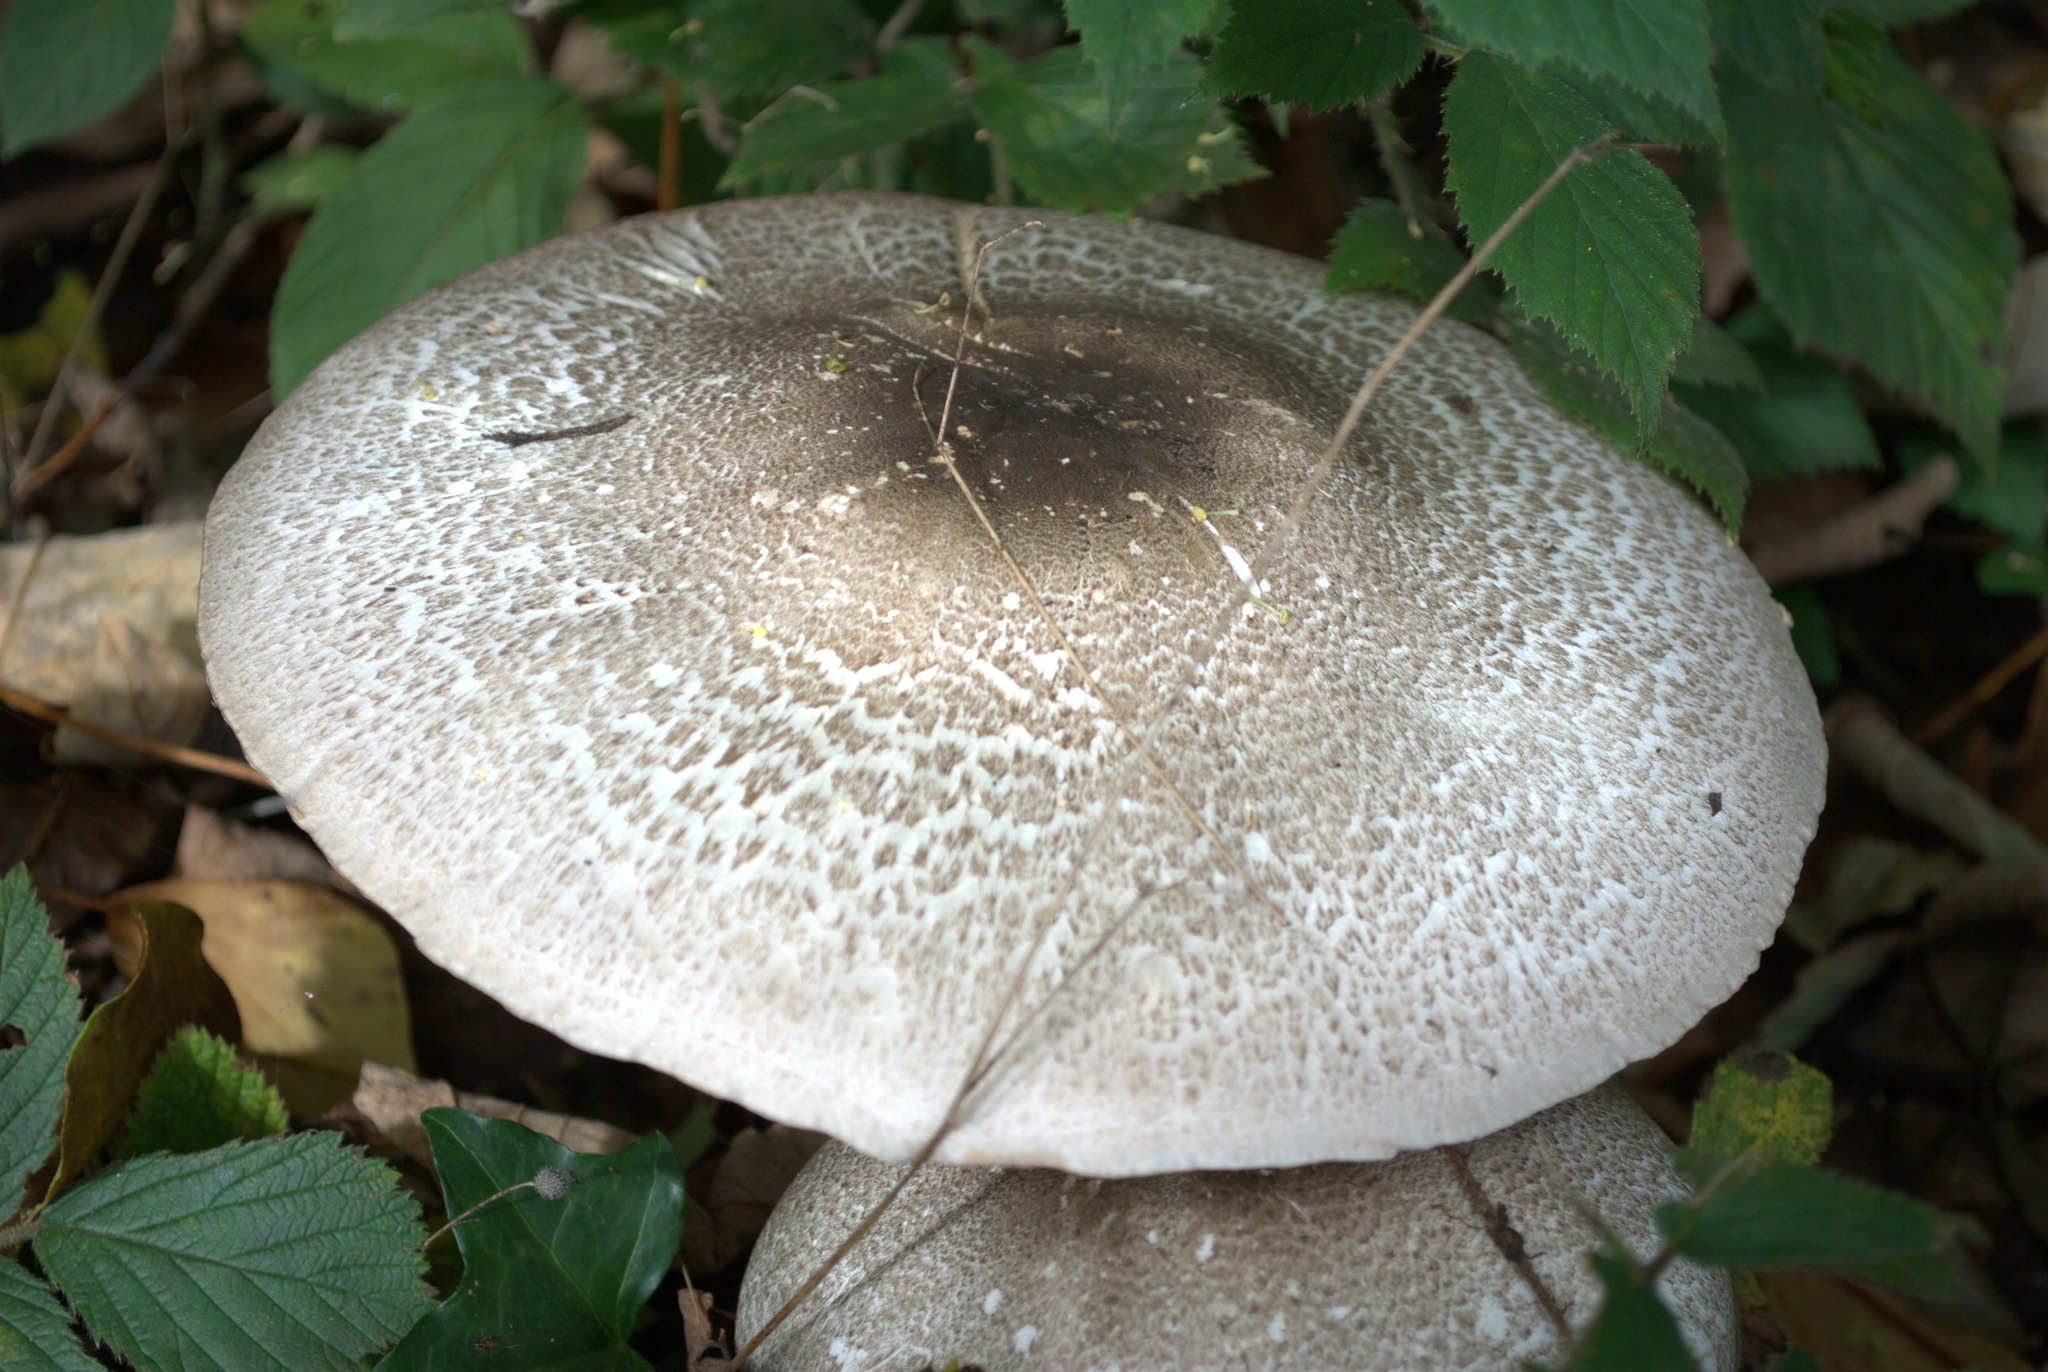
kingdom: Fungi
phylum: Basidiomycota
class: Agaricomycetes
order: Agaricales
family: Agaricaceae
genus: Agaricus
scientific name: Agaricus moelleri
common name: Inky mushroom
